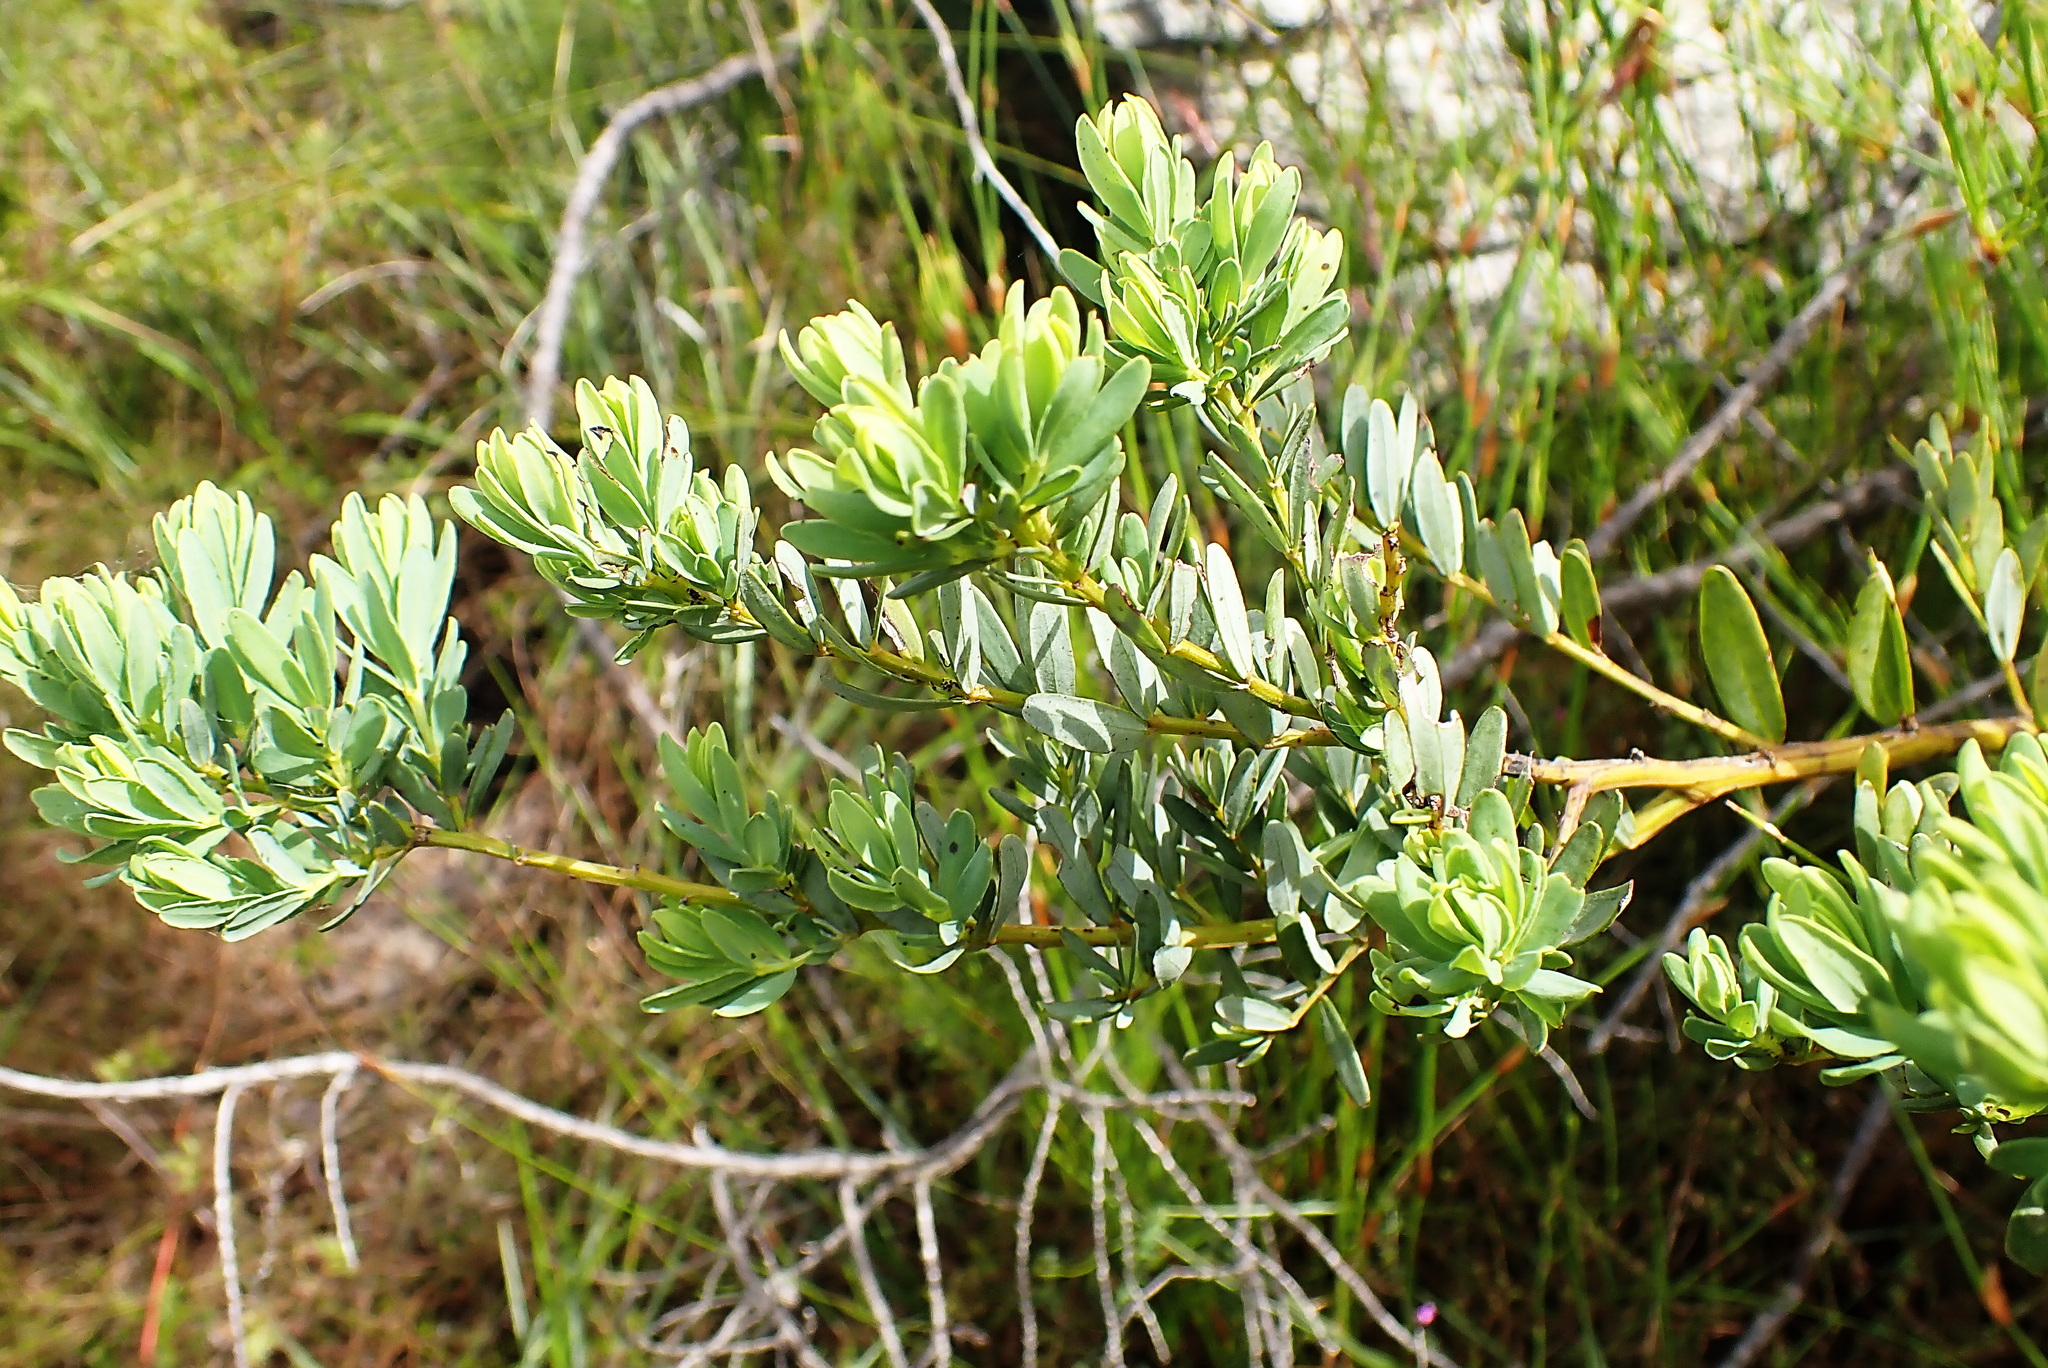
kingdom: Plantae
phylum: Tracheophyta
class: Magnoliopsida
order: Fabales
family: Fabaceae
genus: Cyclopia
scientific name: Cyclopia subternata
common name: Honeybush tea
